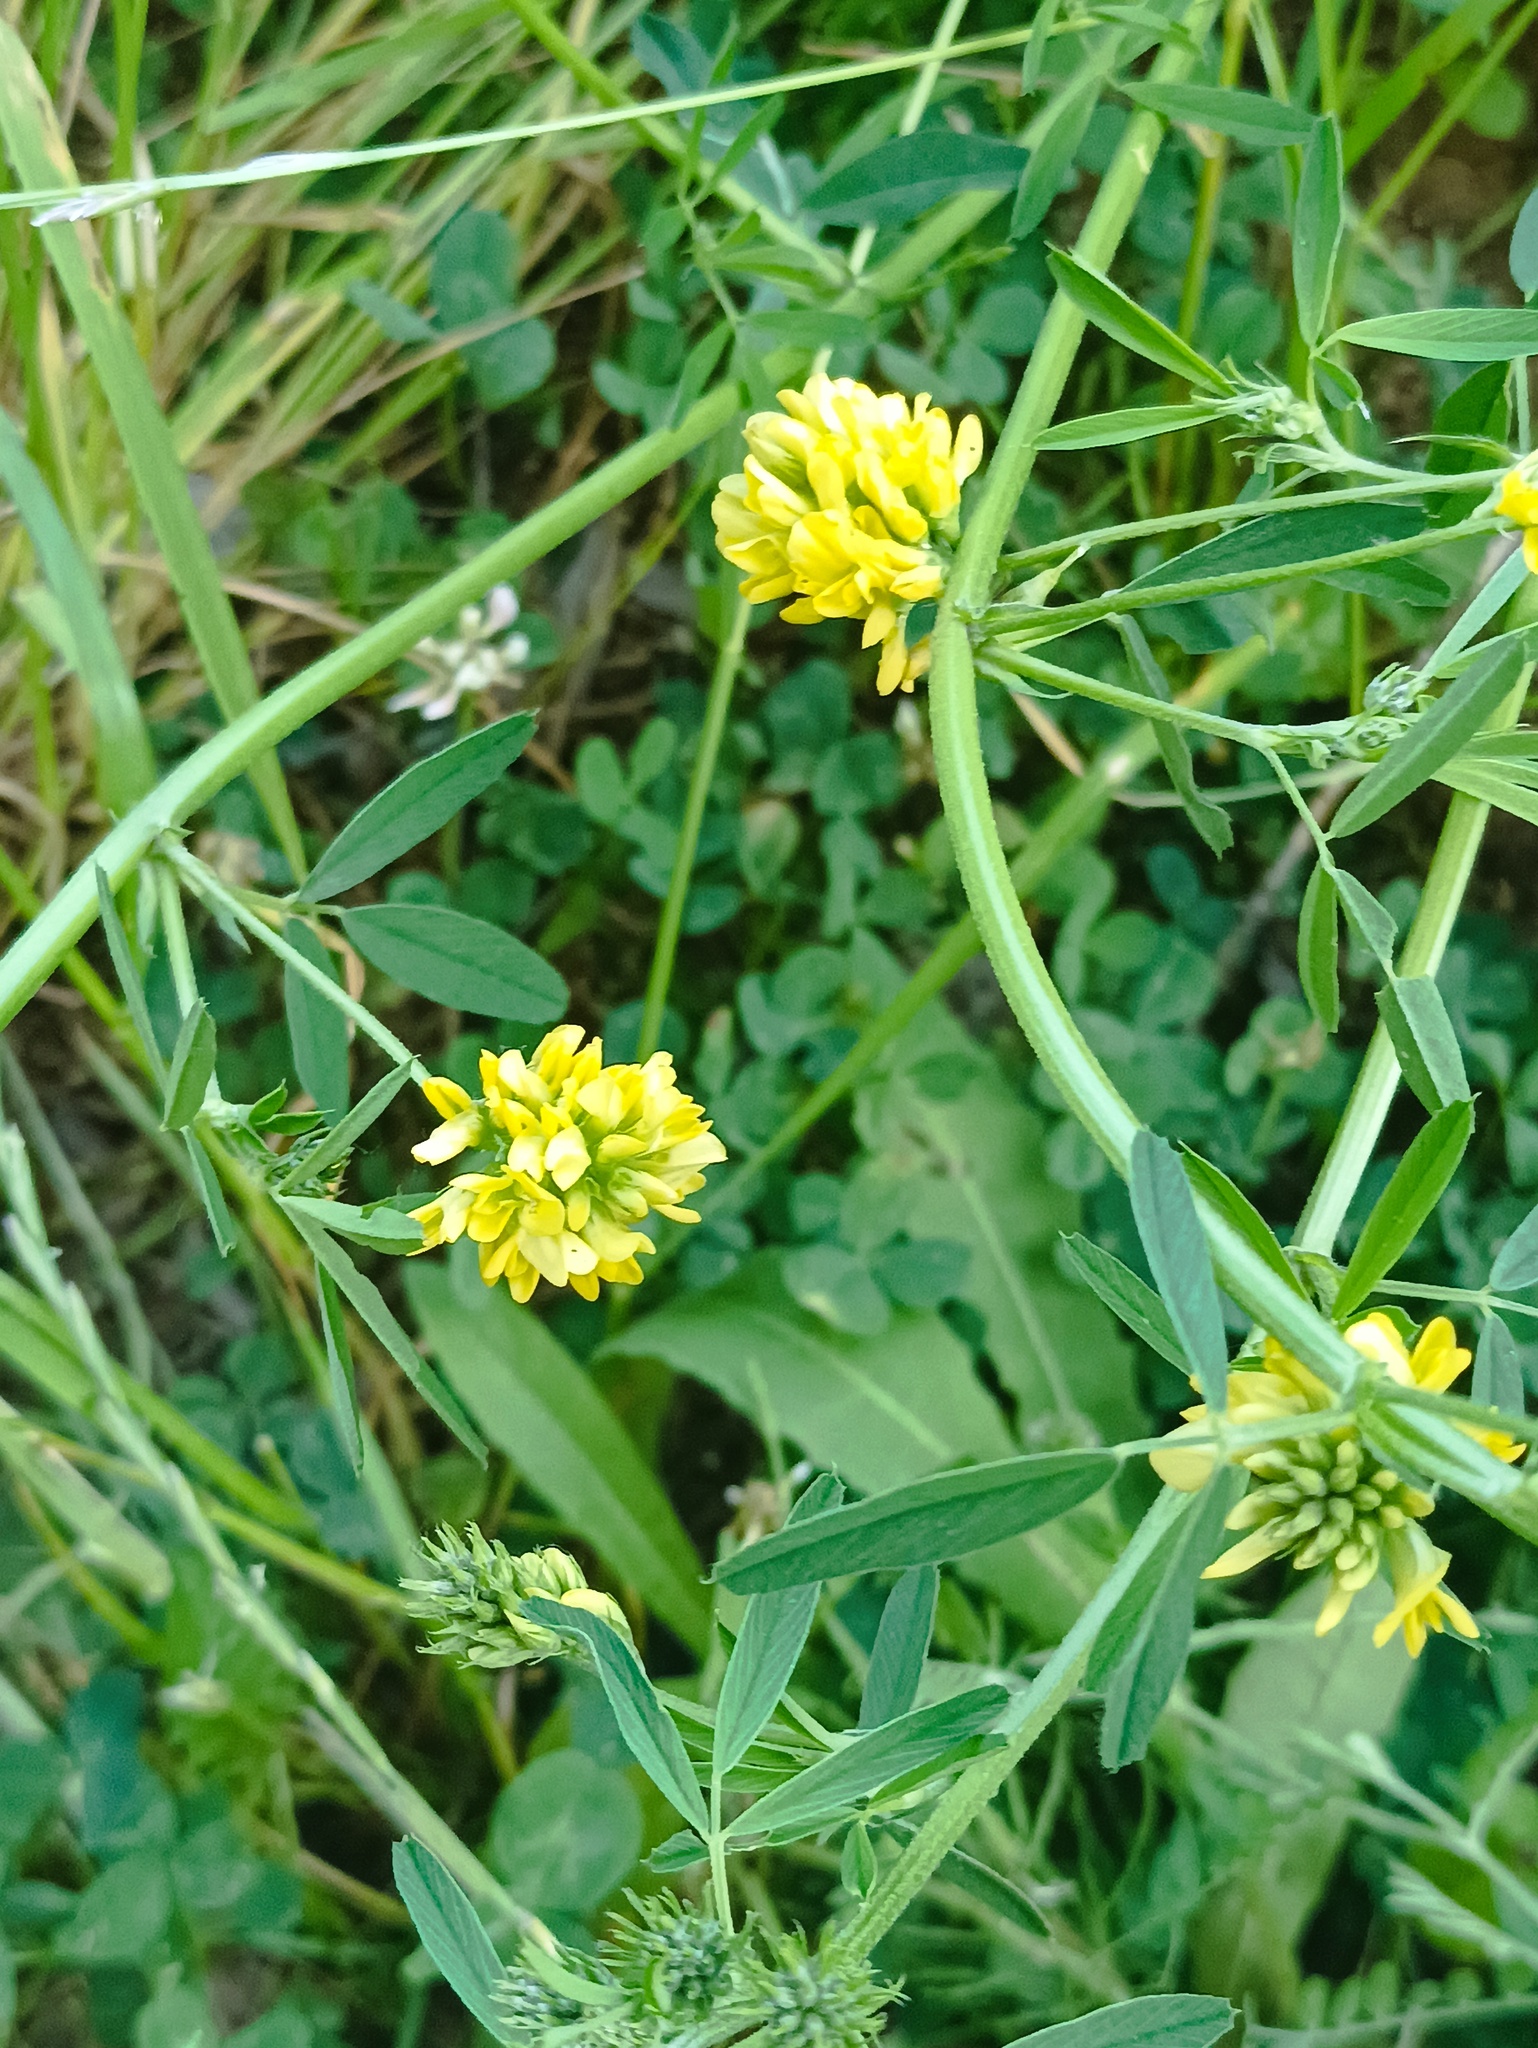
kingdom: Plantae
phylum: Tracheophyta
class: Magnoliopsida
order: Fabales
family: Fabaceae
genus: Medicago
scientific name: Medicago falcata
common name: Sickle medick
